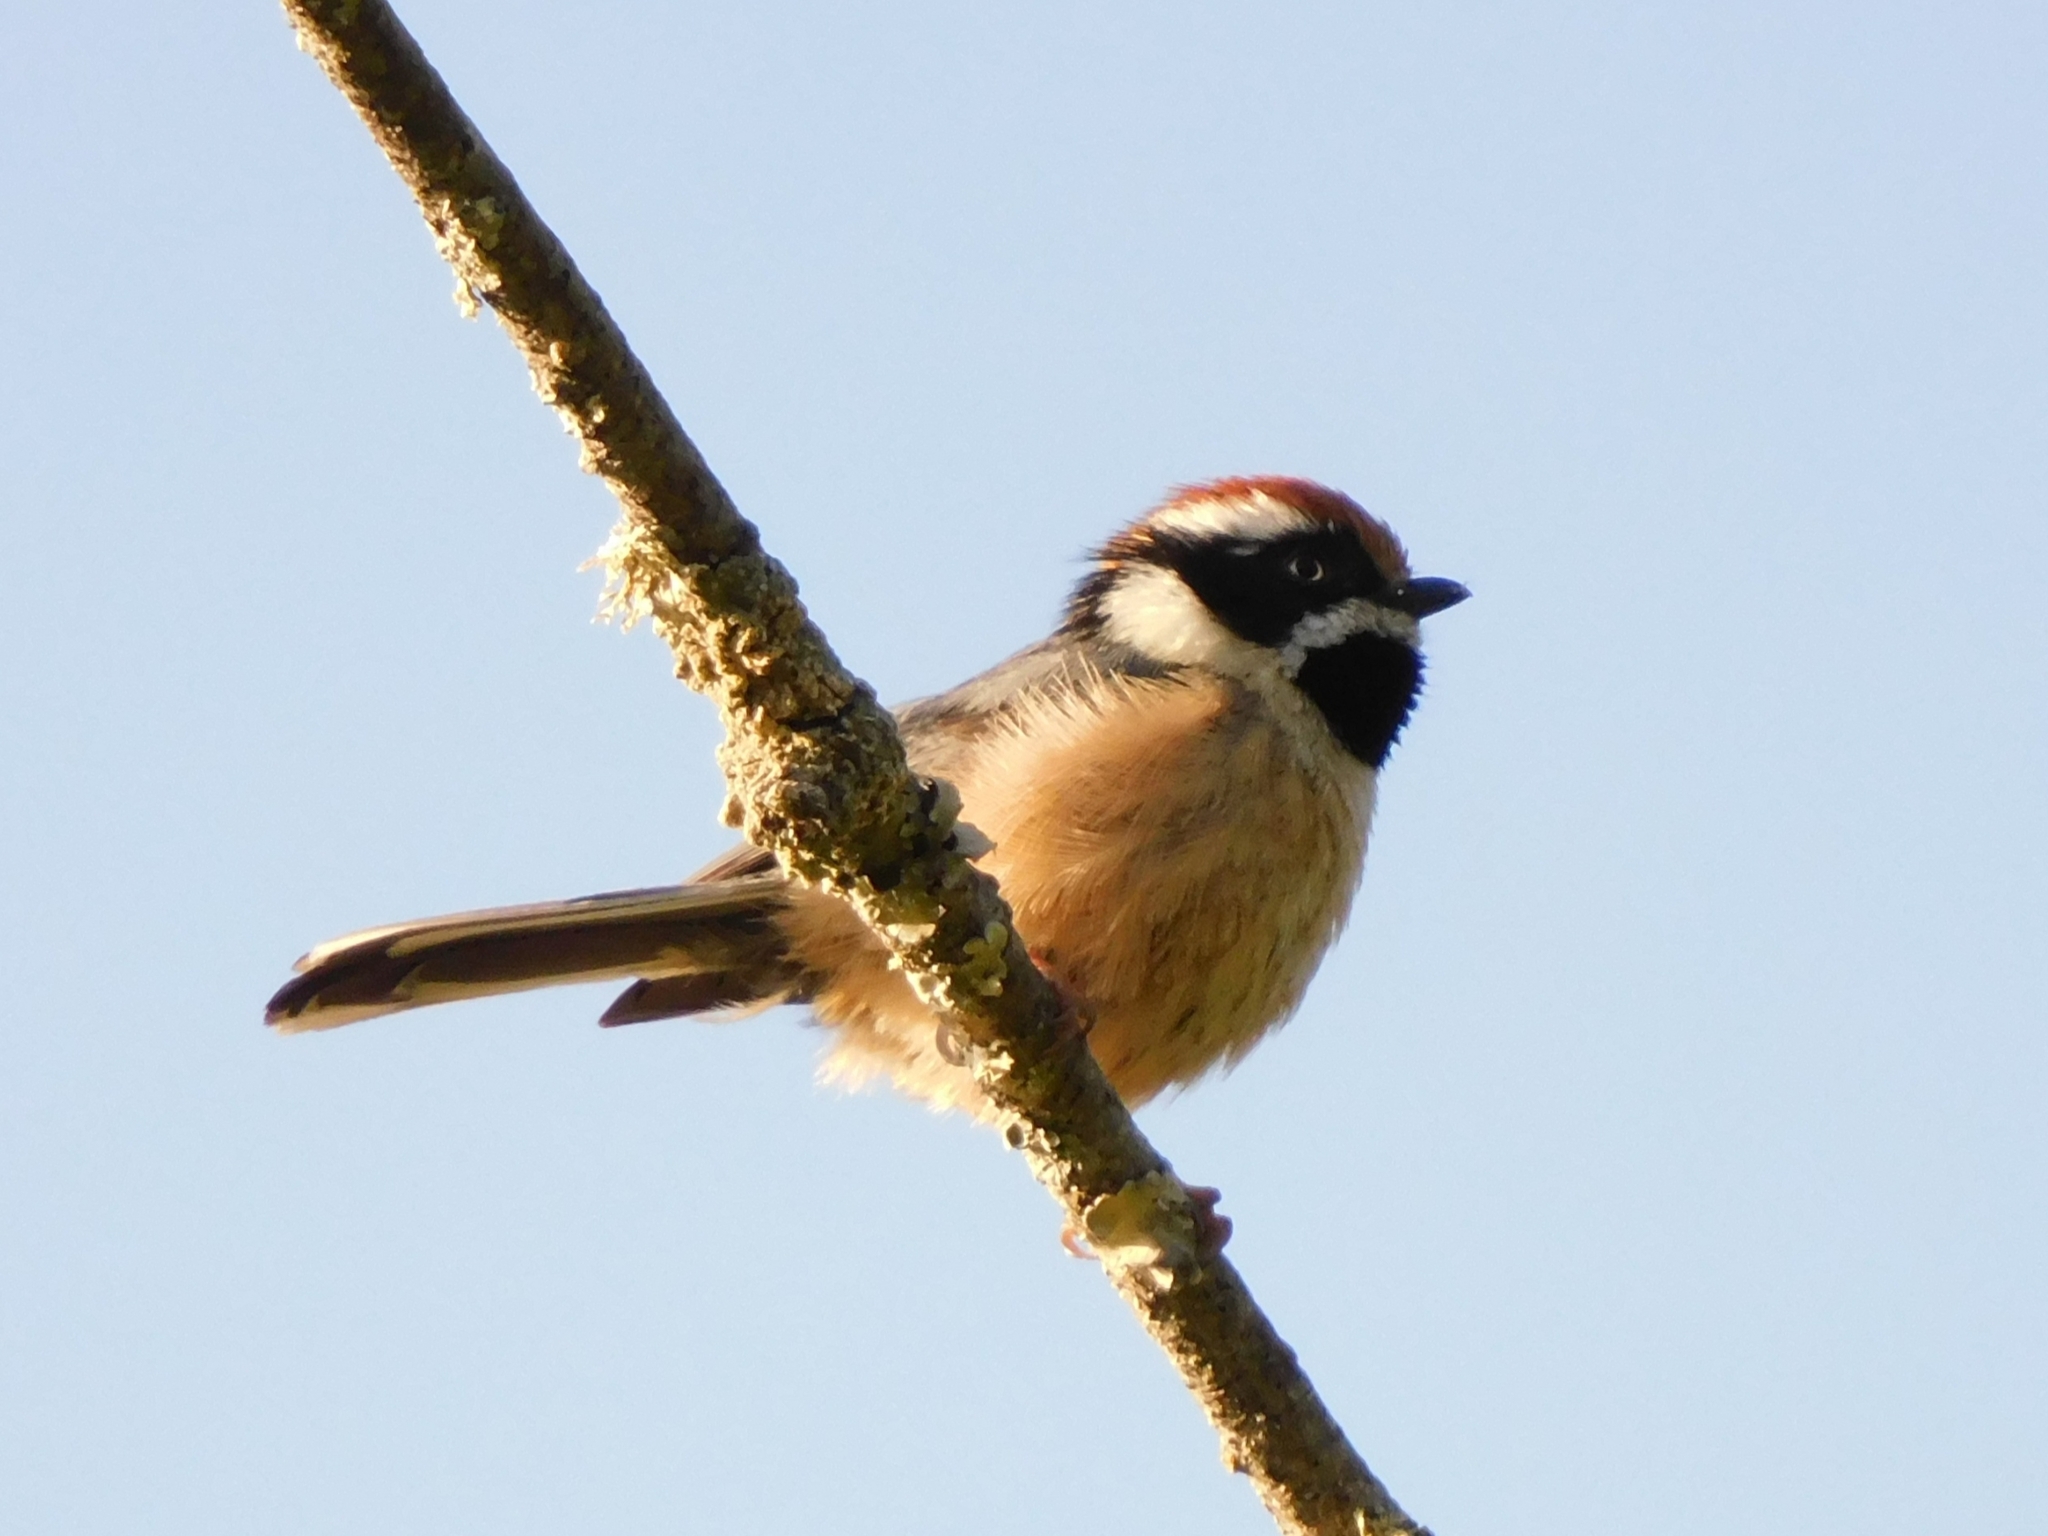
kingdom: Animalia
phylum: Chordata
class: Aves
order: Passeriformes
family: Aegithalidae
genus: Aegithalos
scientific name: Aegithalos concinnus
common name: Black-throated bushtit
